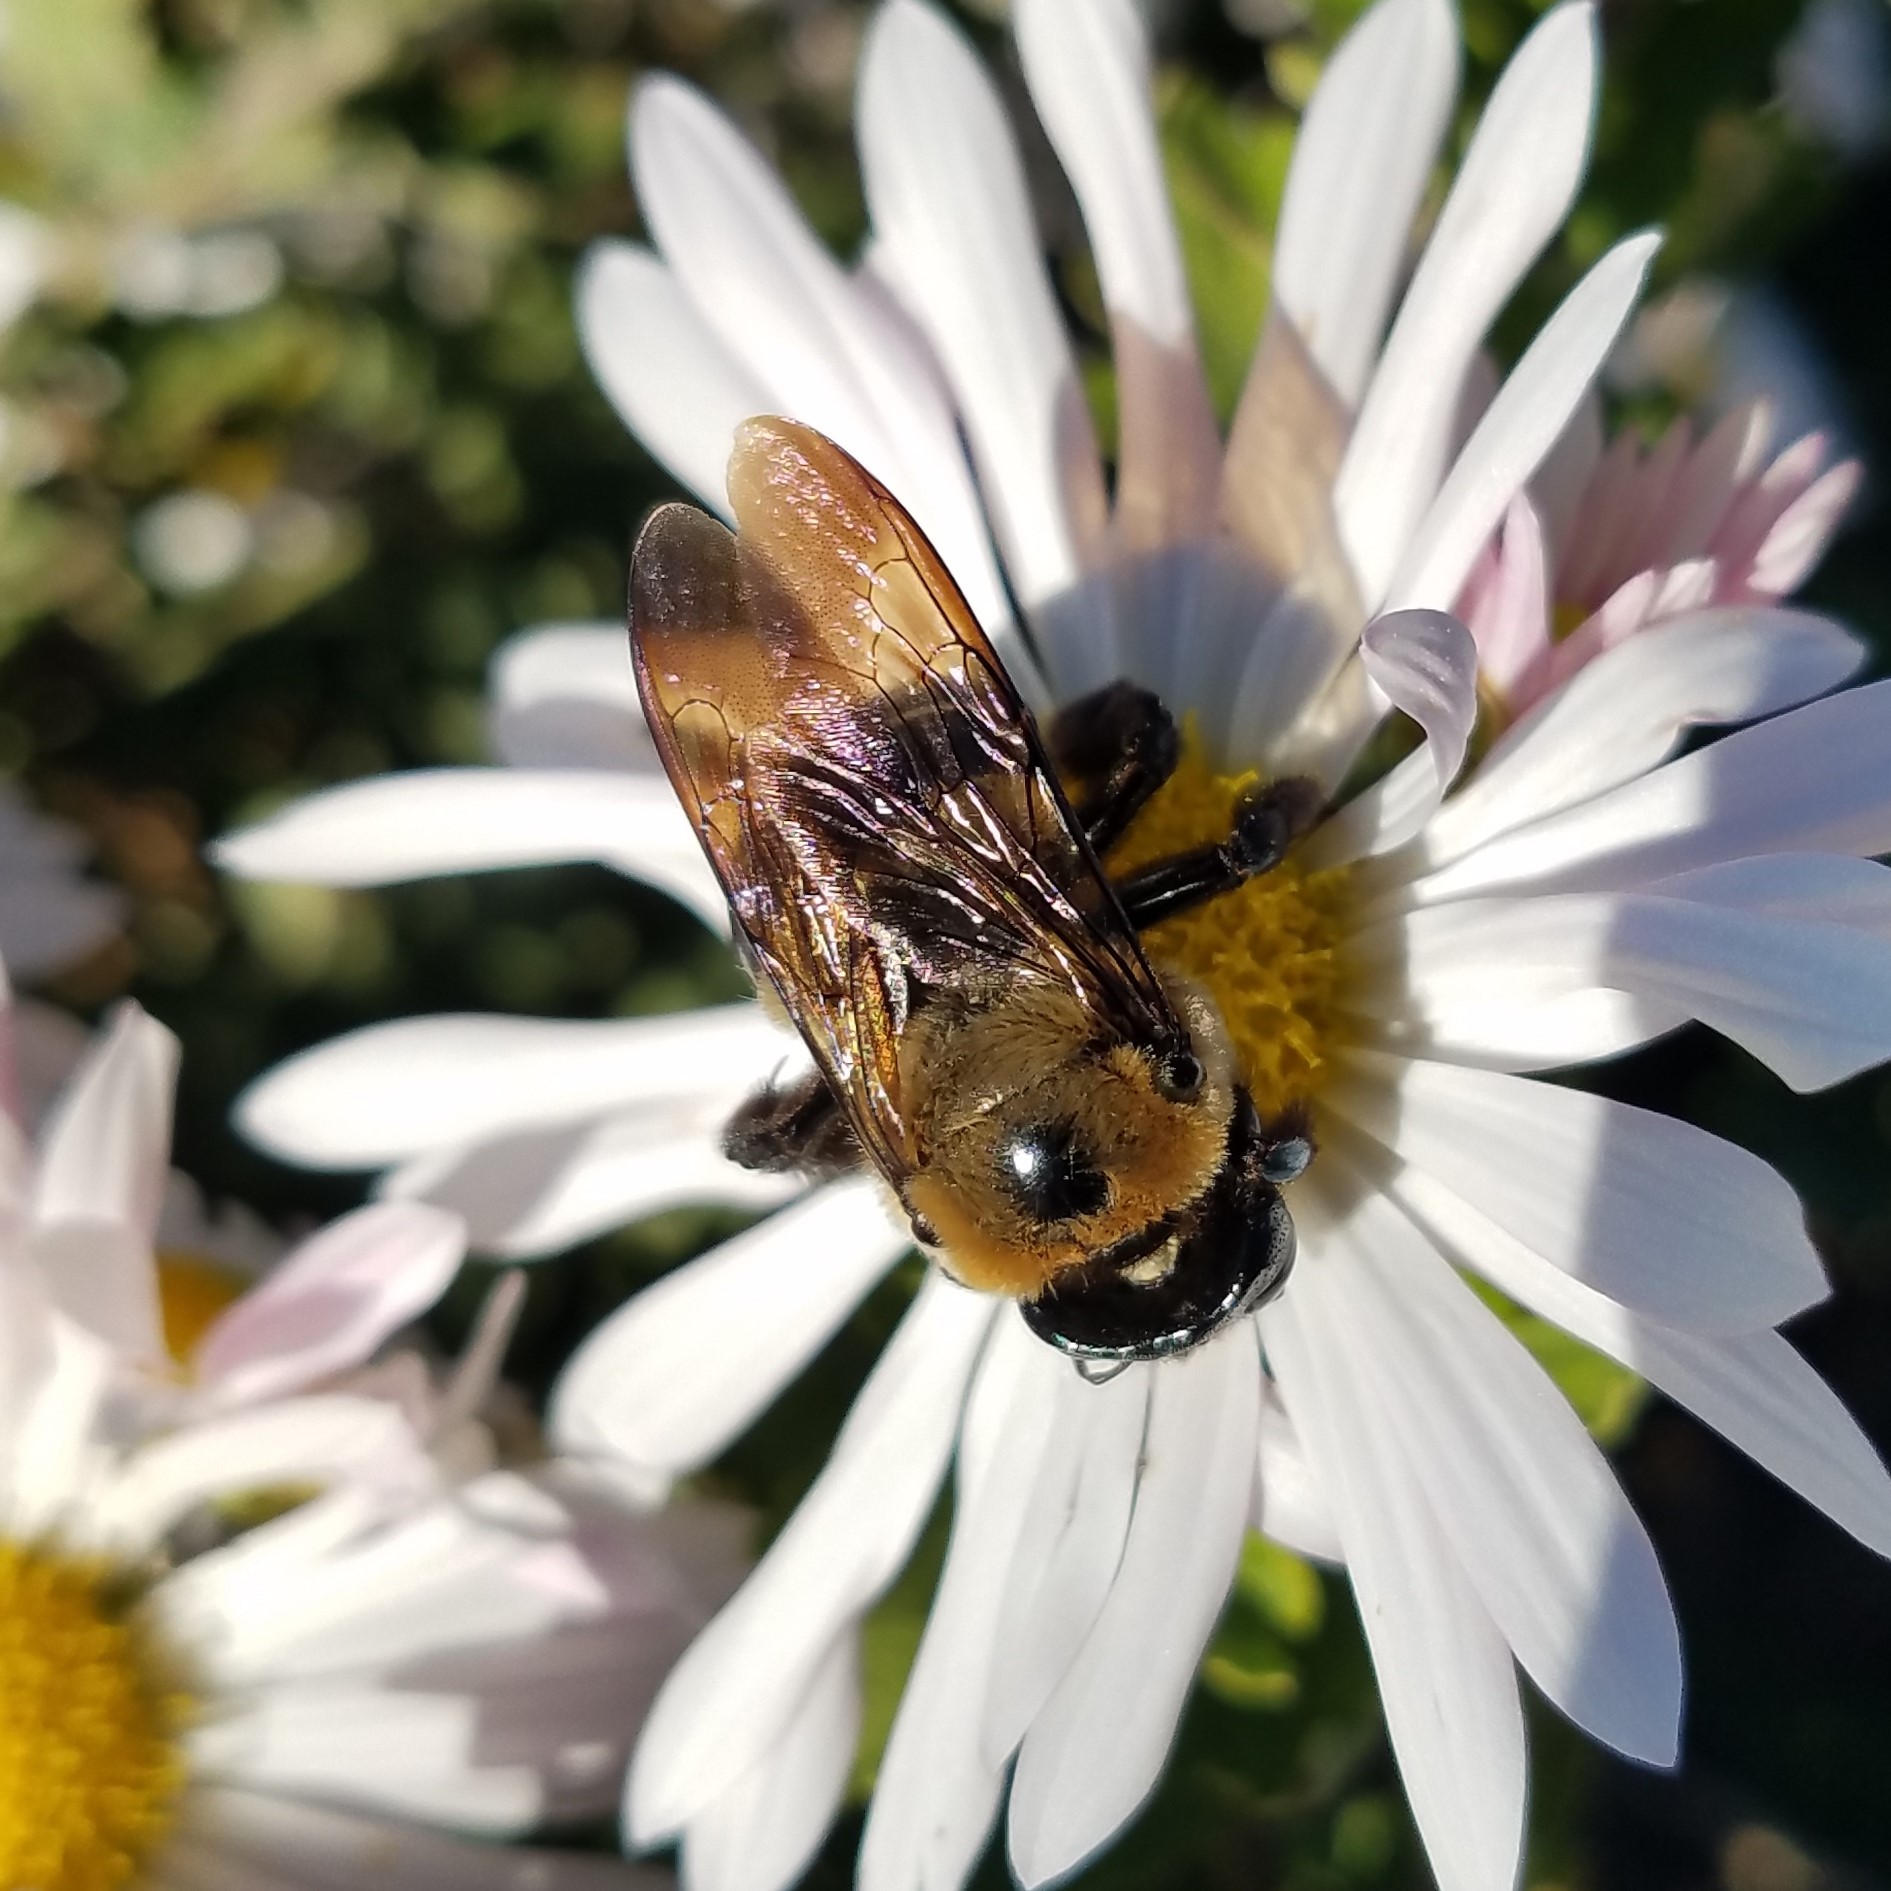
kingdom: Animalia
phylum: Arthropoda
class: Insecta
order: Hymenoptera
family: Apidae
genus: Xylocopa
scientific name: Xylocopa virginica
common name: Carpenter bee
